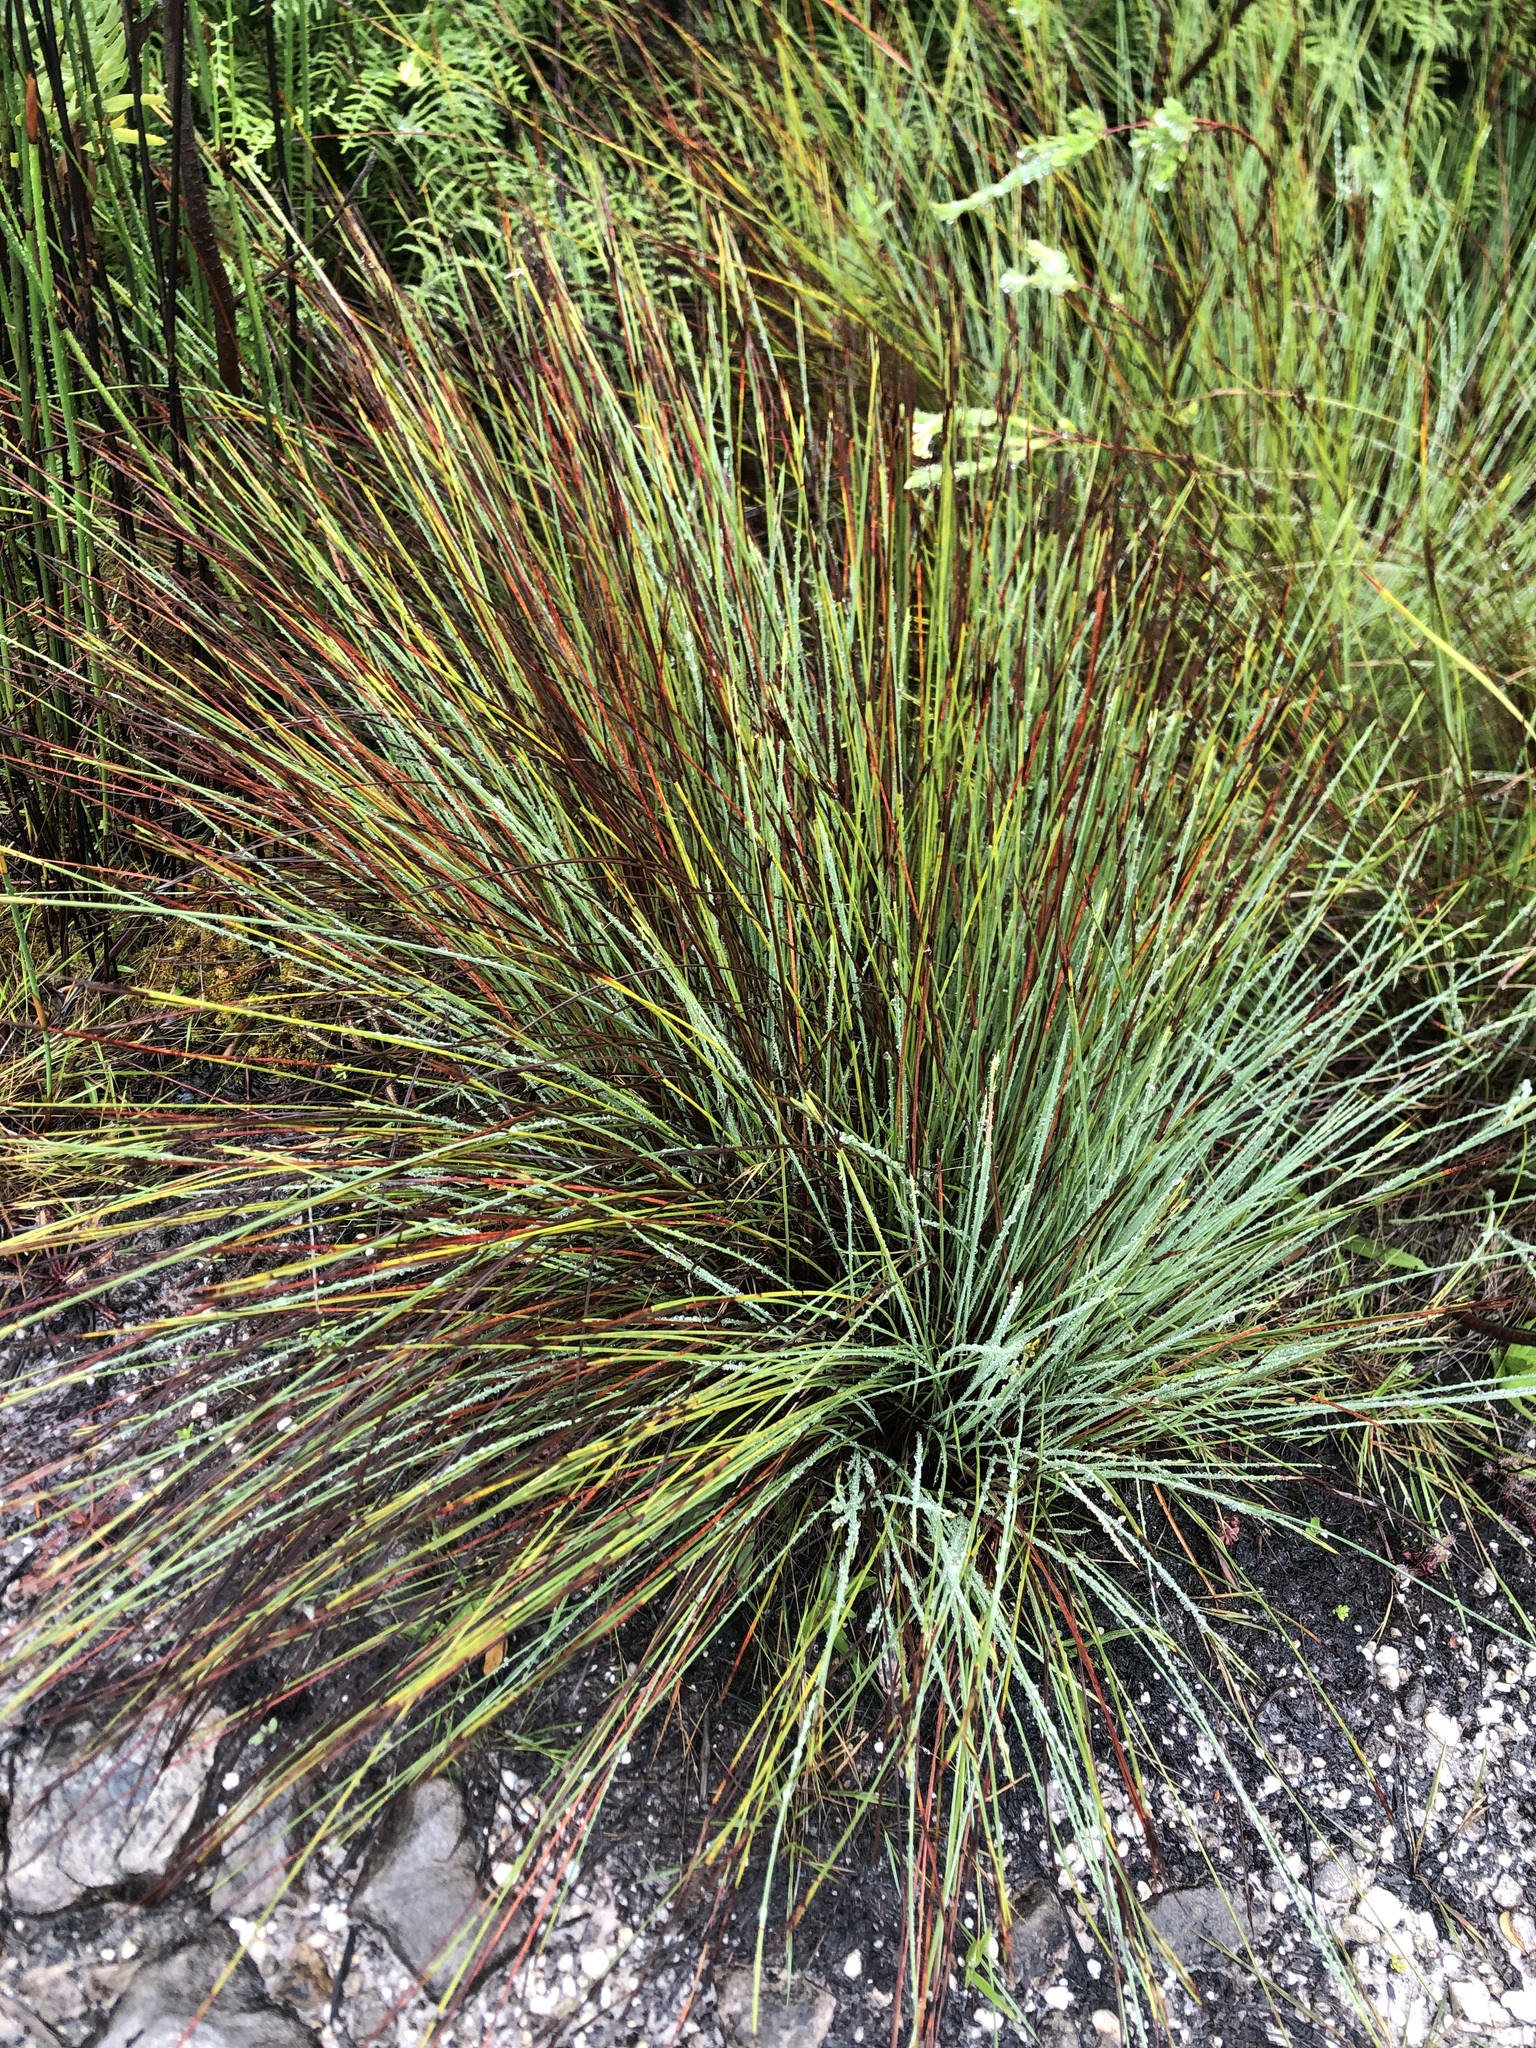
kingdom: Plantae
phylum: Tracheophyta
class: Liliopsida
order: Poales
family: Cyperaceae
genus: Schoenus
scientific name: Schoenus quadrangularis
